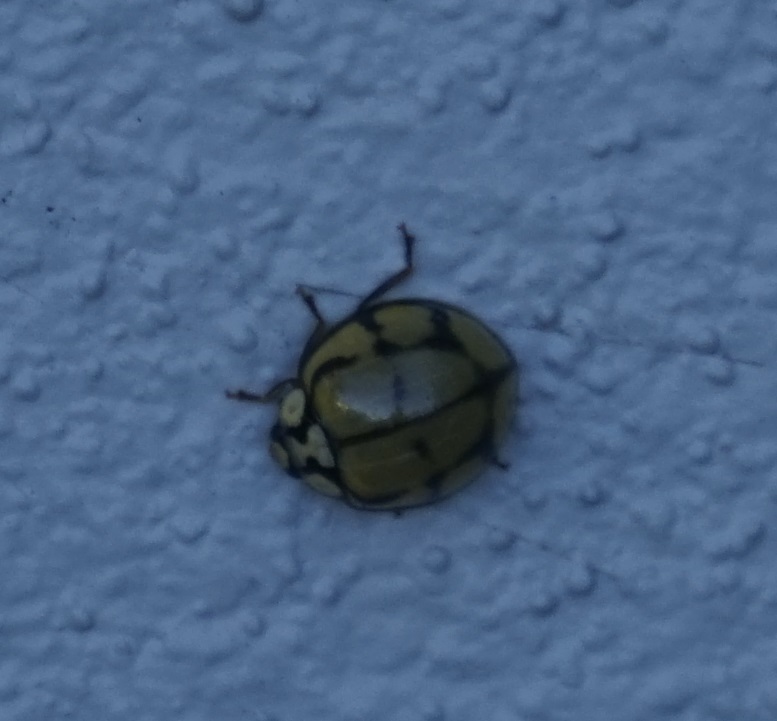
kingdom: Animalia
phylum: Arthropoda
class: Insecta
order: Coleoptera
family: Coccinellidae
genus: Harmonia
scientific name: Harmonia
